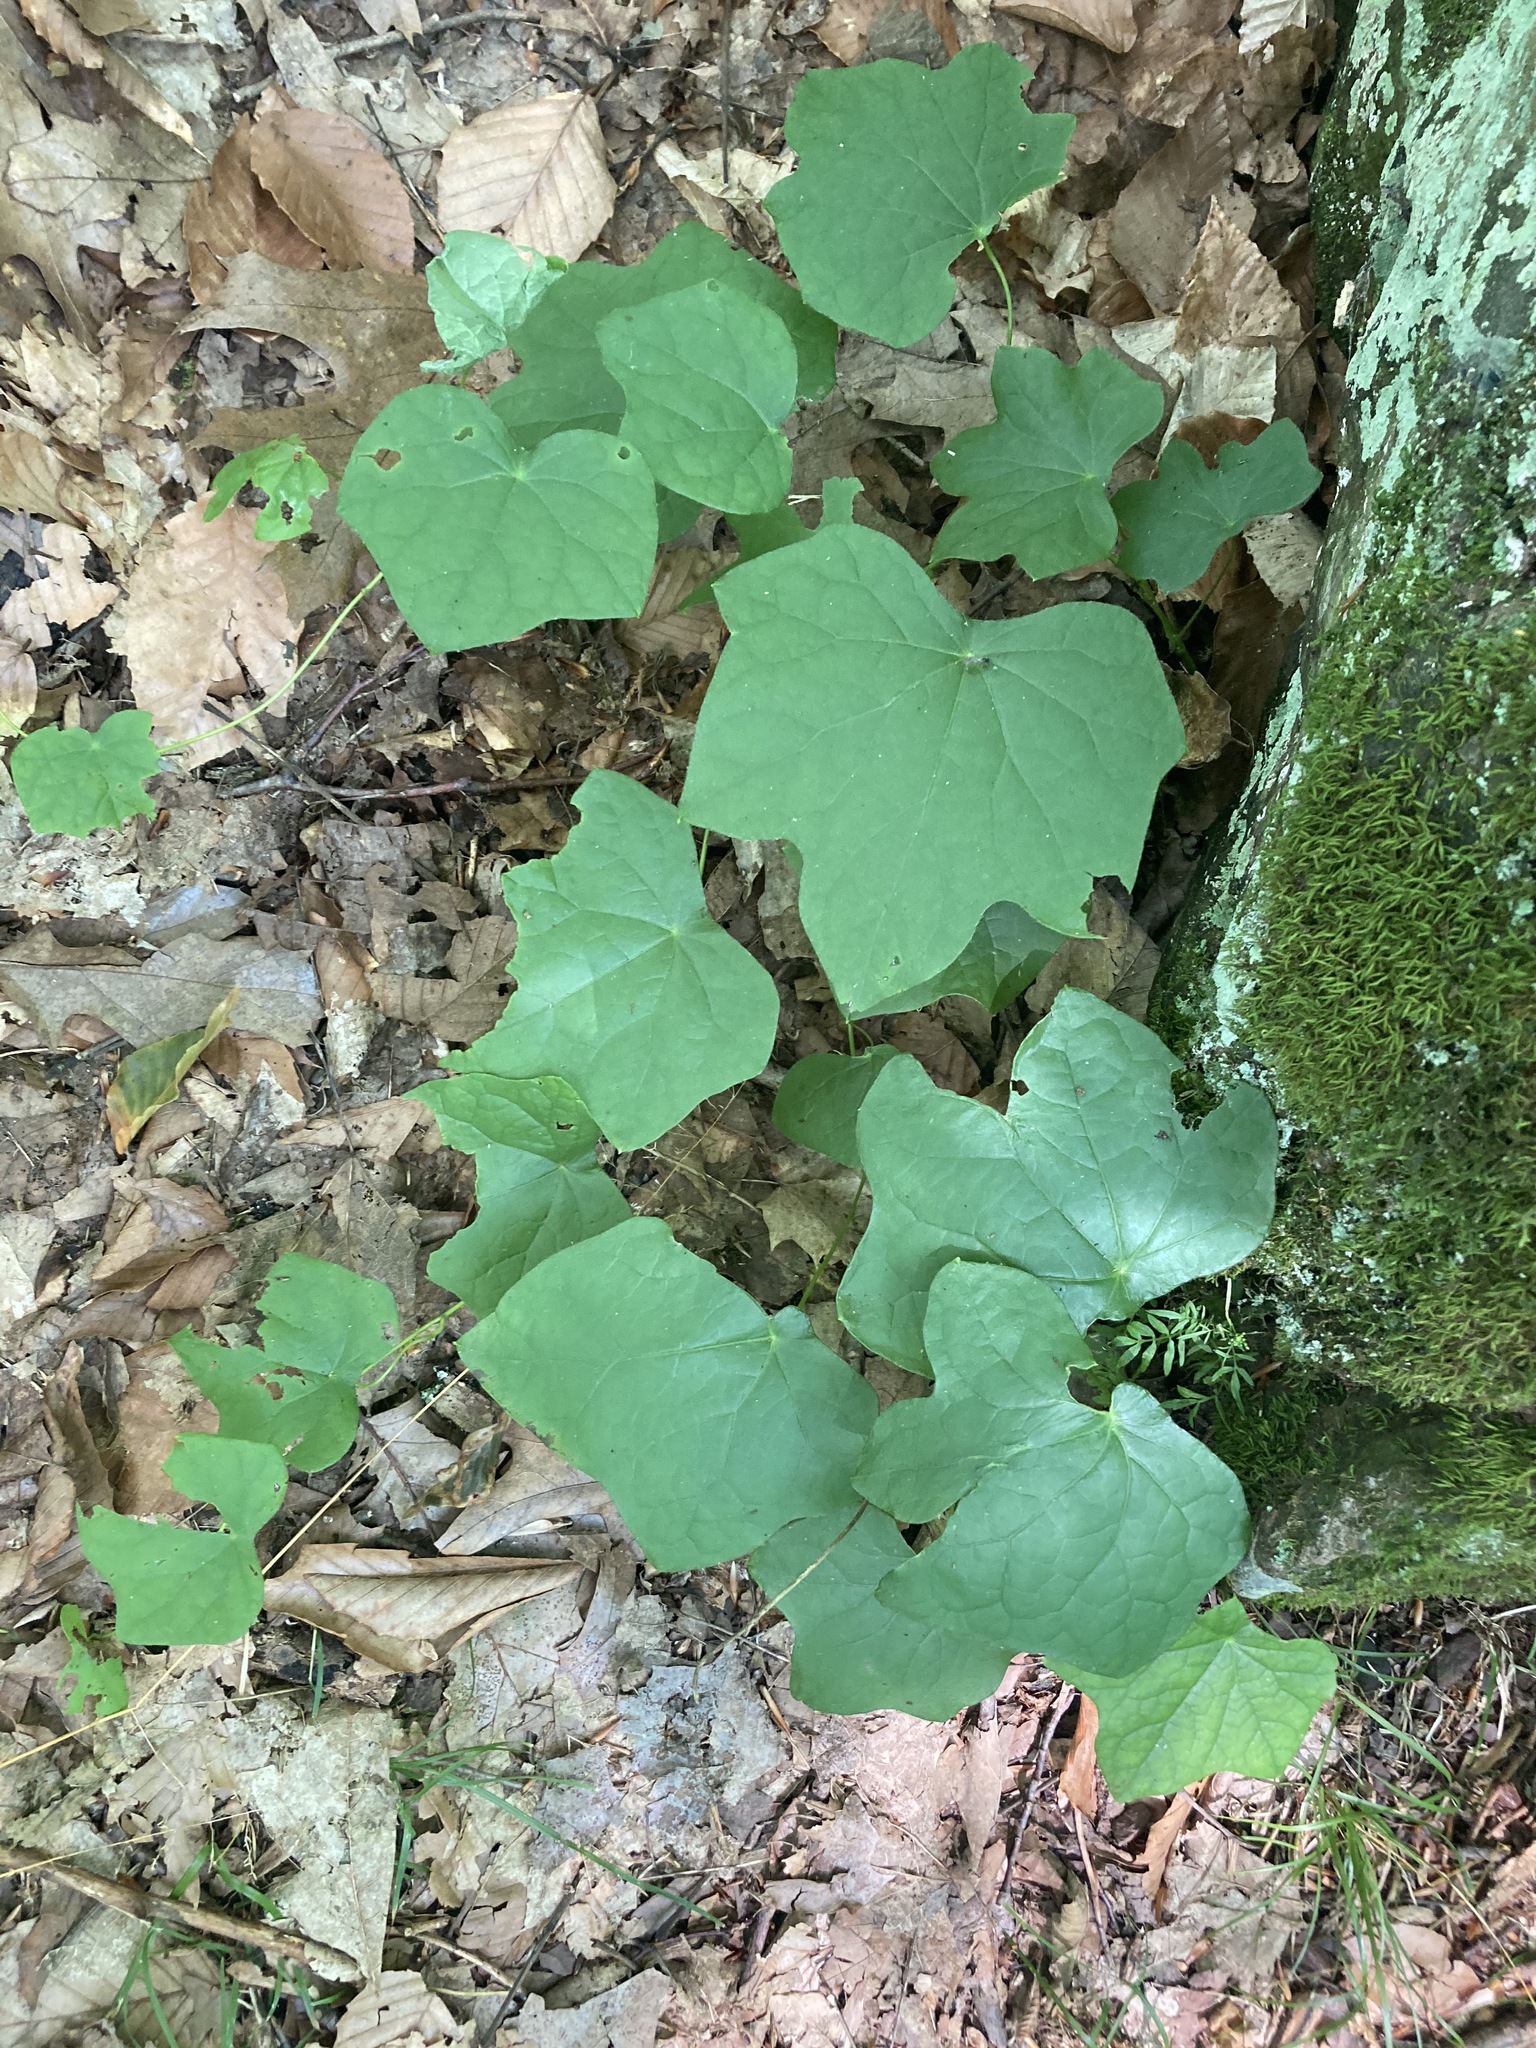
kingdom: Plantae
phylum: Tracheophyta
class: Magnoliopsida
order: Ranunculales
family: Menispermaceae
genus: Menispermum
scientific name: Menispermum canadense
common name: Moonseed
